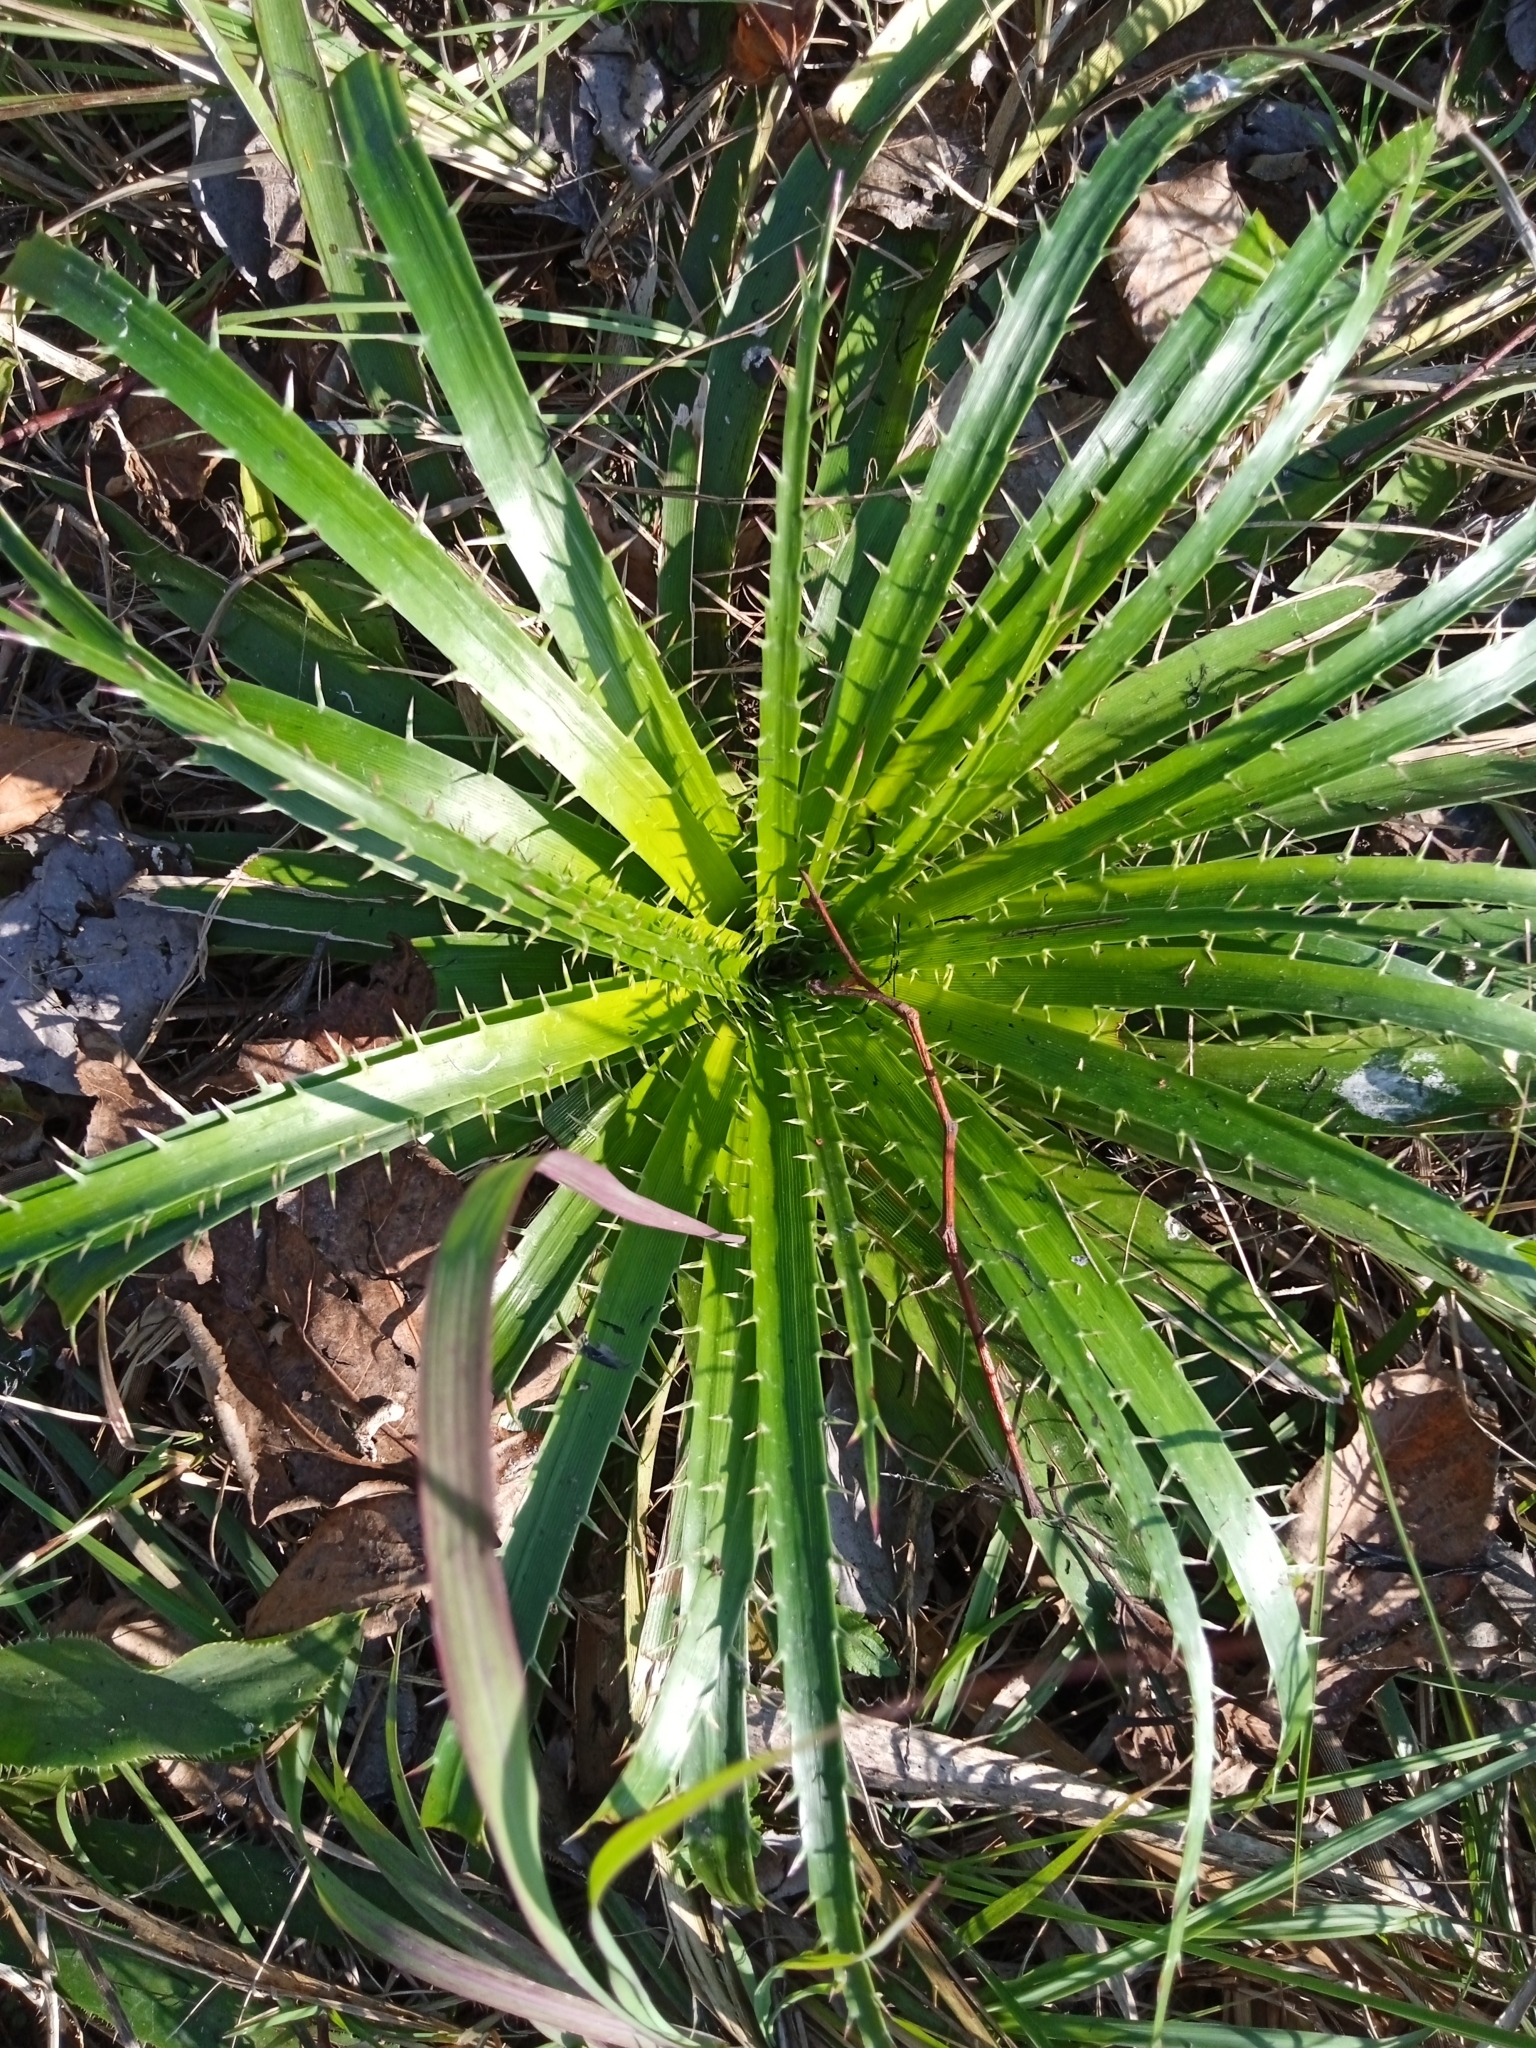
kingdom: Plantae
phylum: Tracheophyta
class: Magnoliopsida
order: Apiales
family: Apiaceae
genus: Eryngium
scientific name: Eryngium horridum
